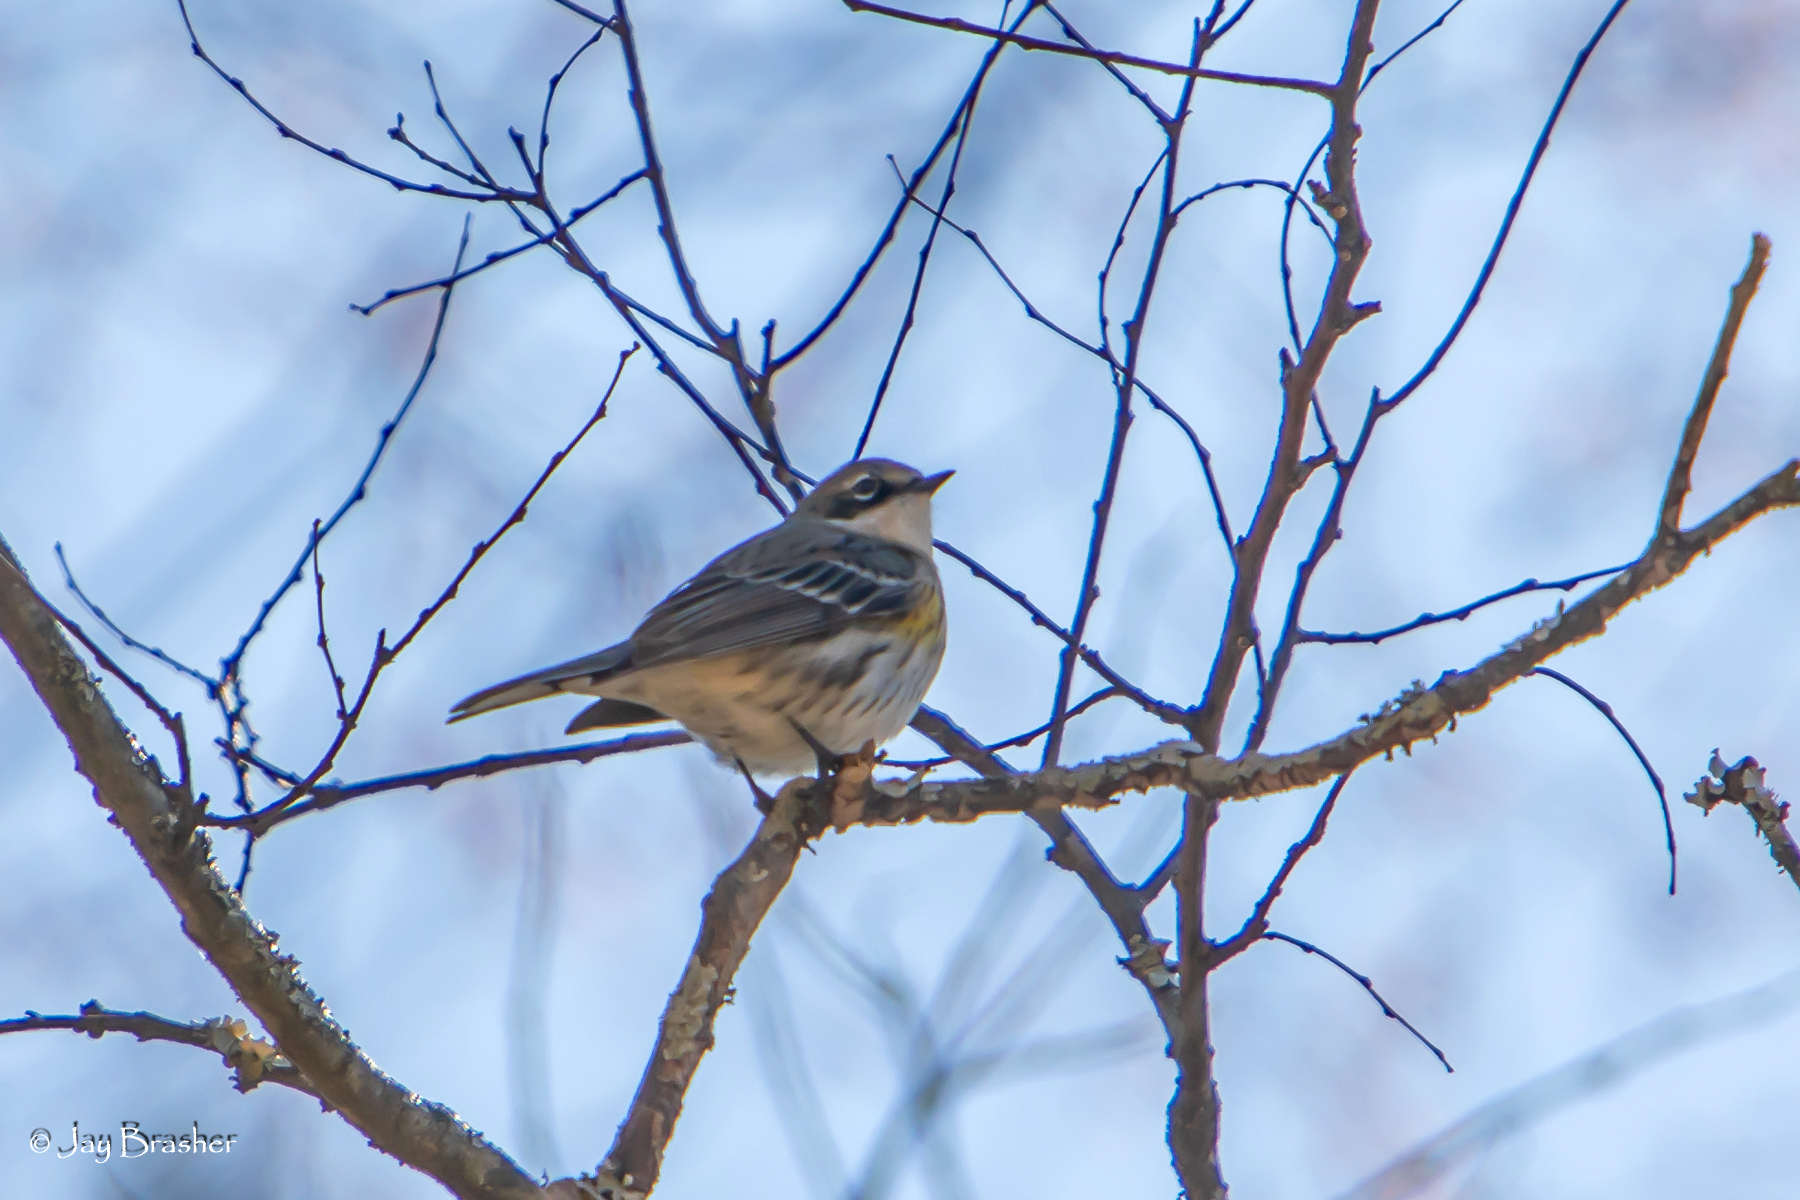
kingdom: Animalia
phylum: Chordata
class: Aves
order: Passeriformes
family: Parulidae
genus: Setophaga
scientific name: Setophaga coronata
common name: Myrtle warbler
